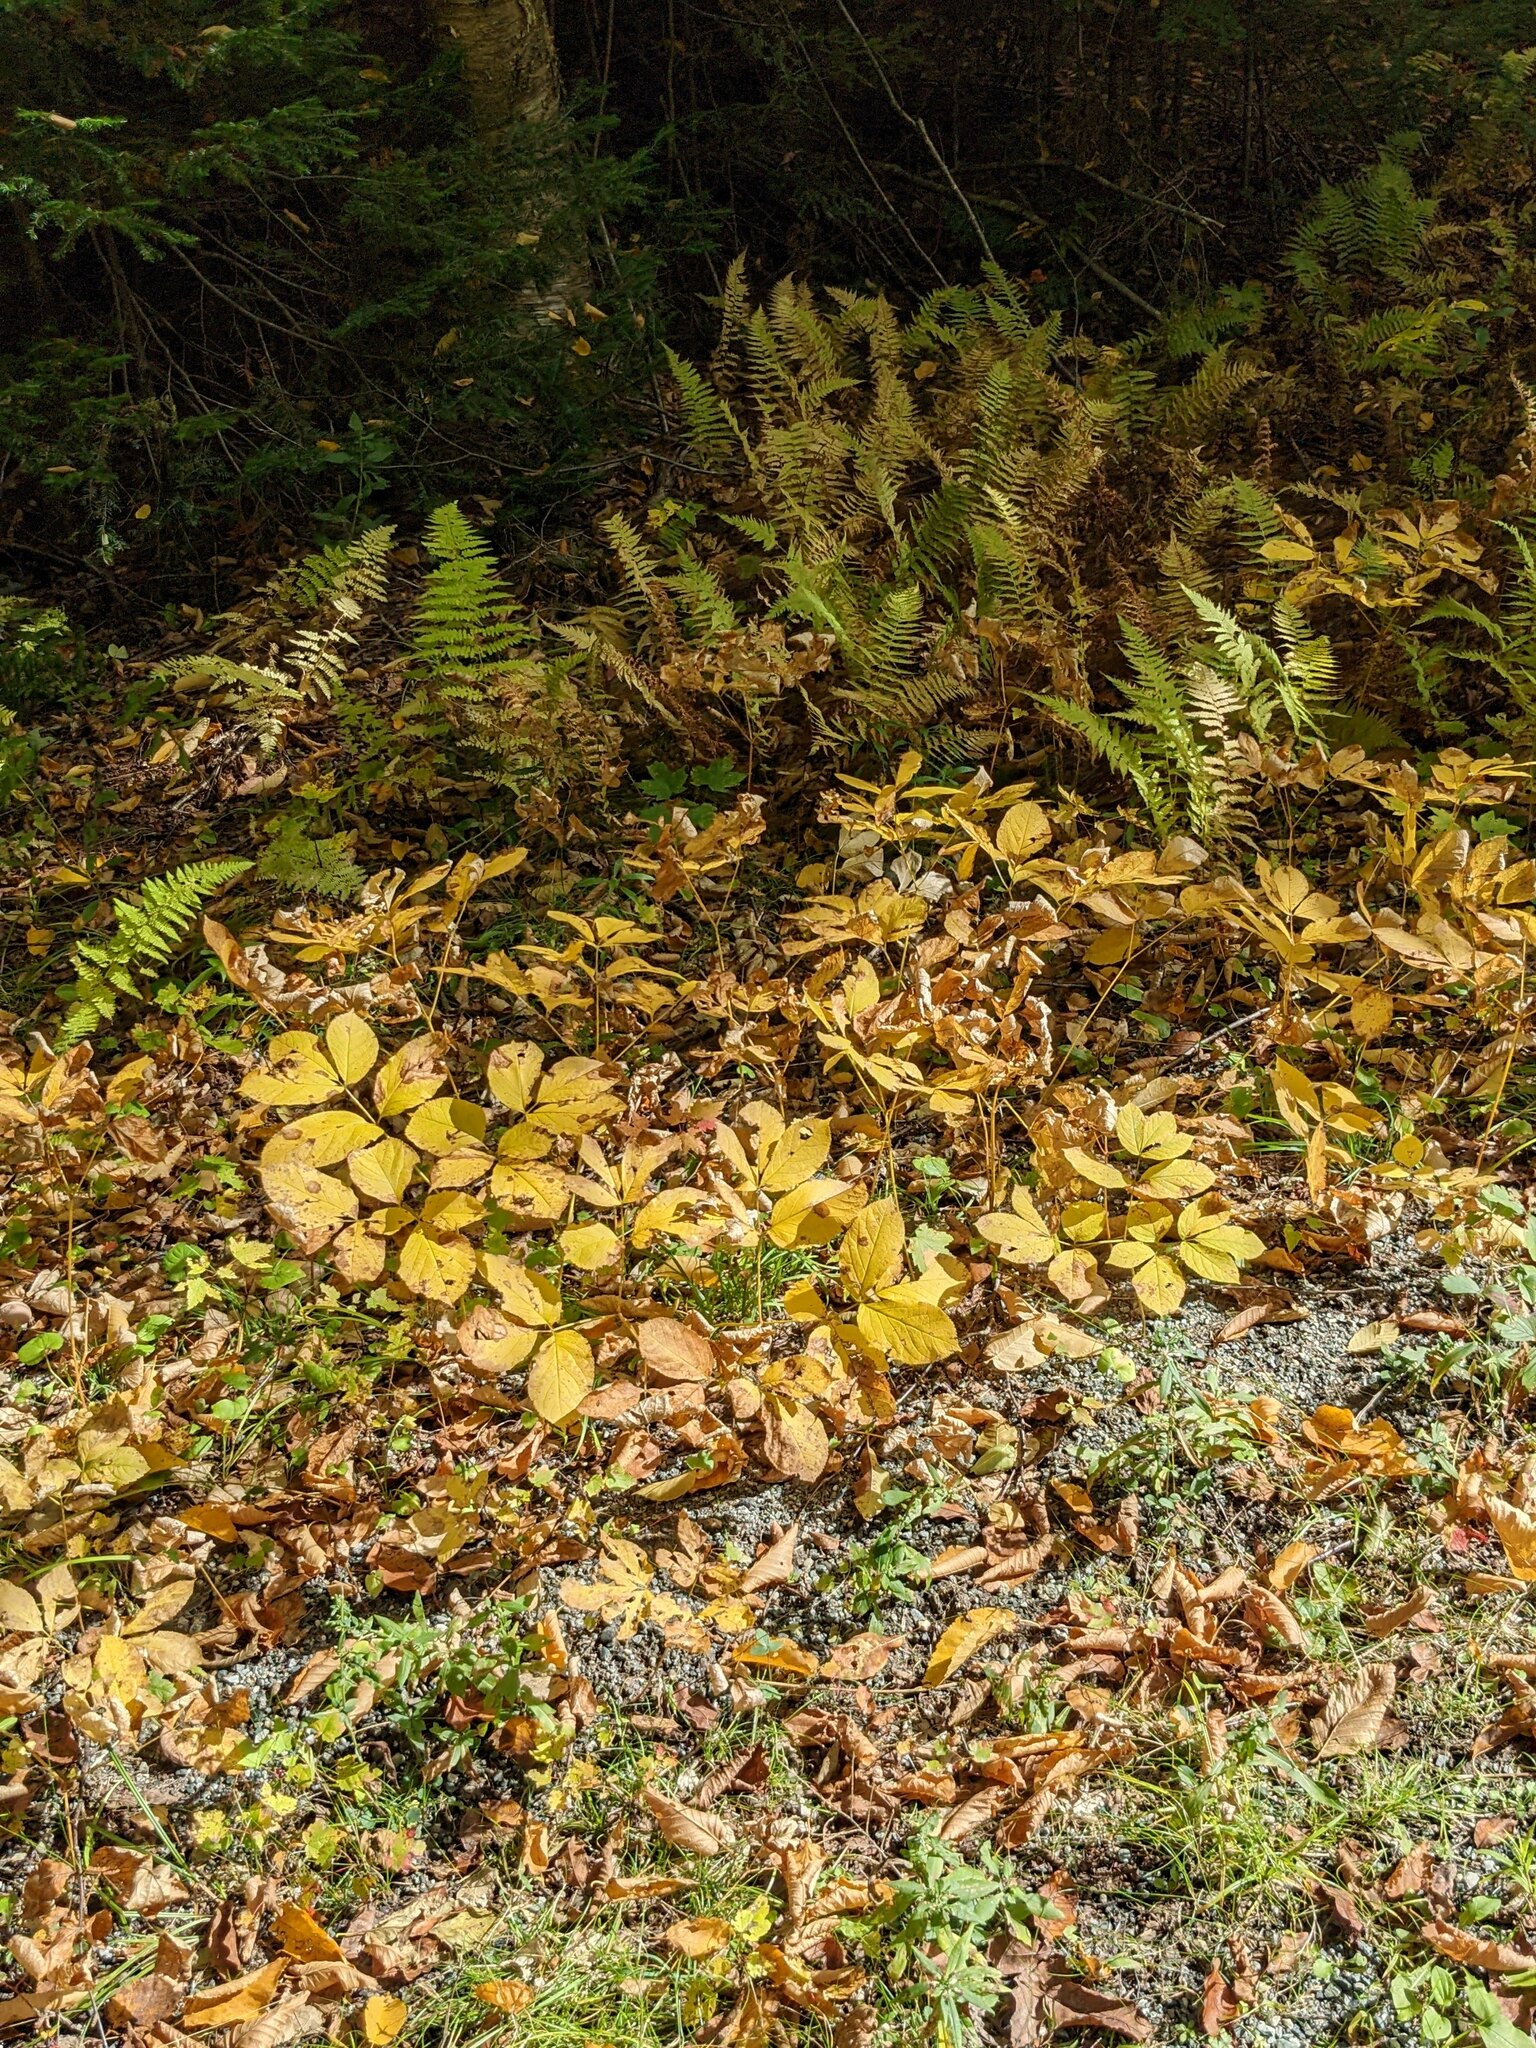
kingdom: Plantae
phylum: Tracheophyta
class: Magnoliopsida
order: Apiales
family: Araliaceae
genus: Aralia
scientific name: Aralia nudicaulis
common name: Wild sarsaparilla
